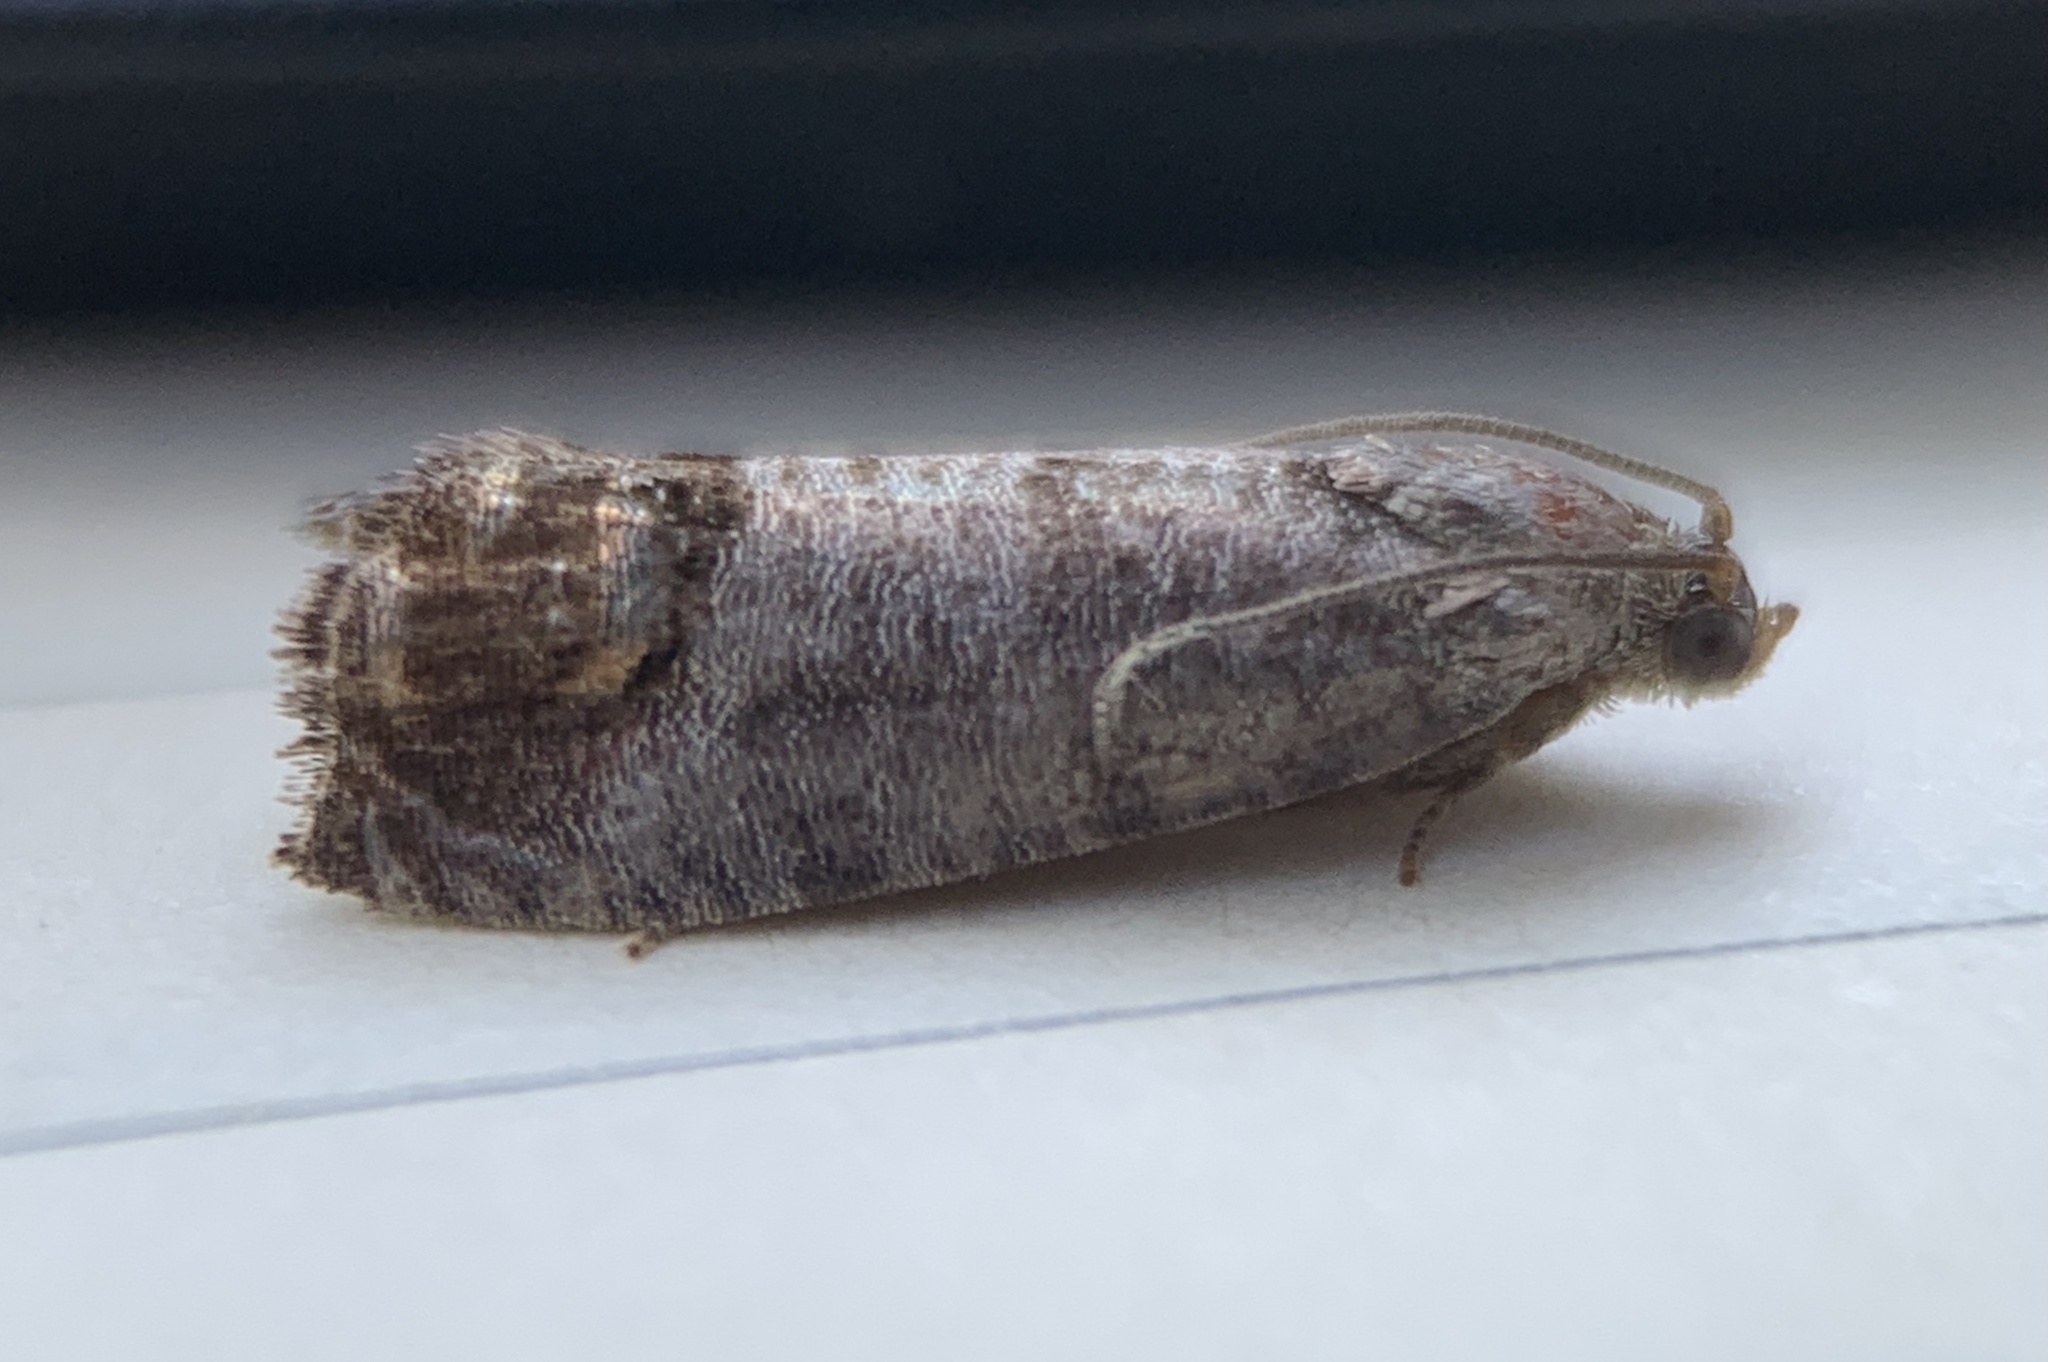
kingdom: Animalia
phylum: Arthropoda
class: Insecta
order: Lepidoptera
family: Tortricidae
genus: Cydia
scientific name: Cydia pomonella
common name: Codling moth
